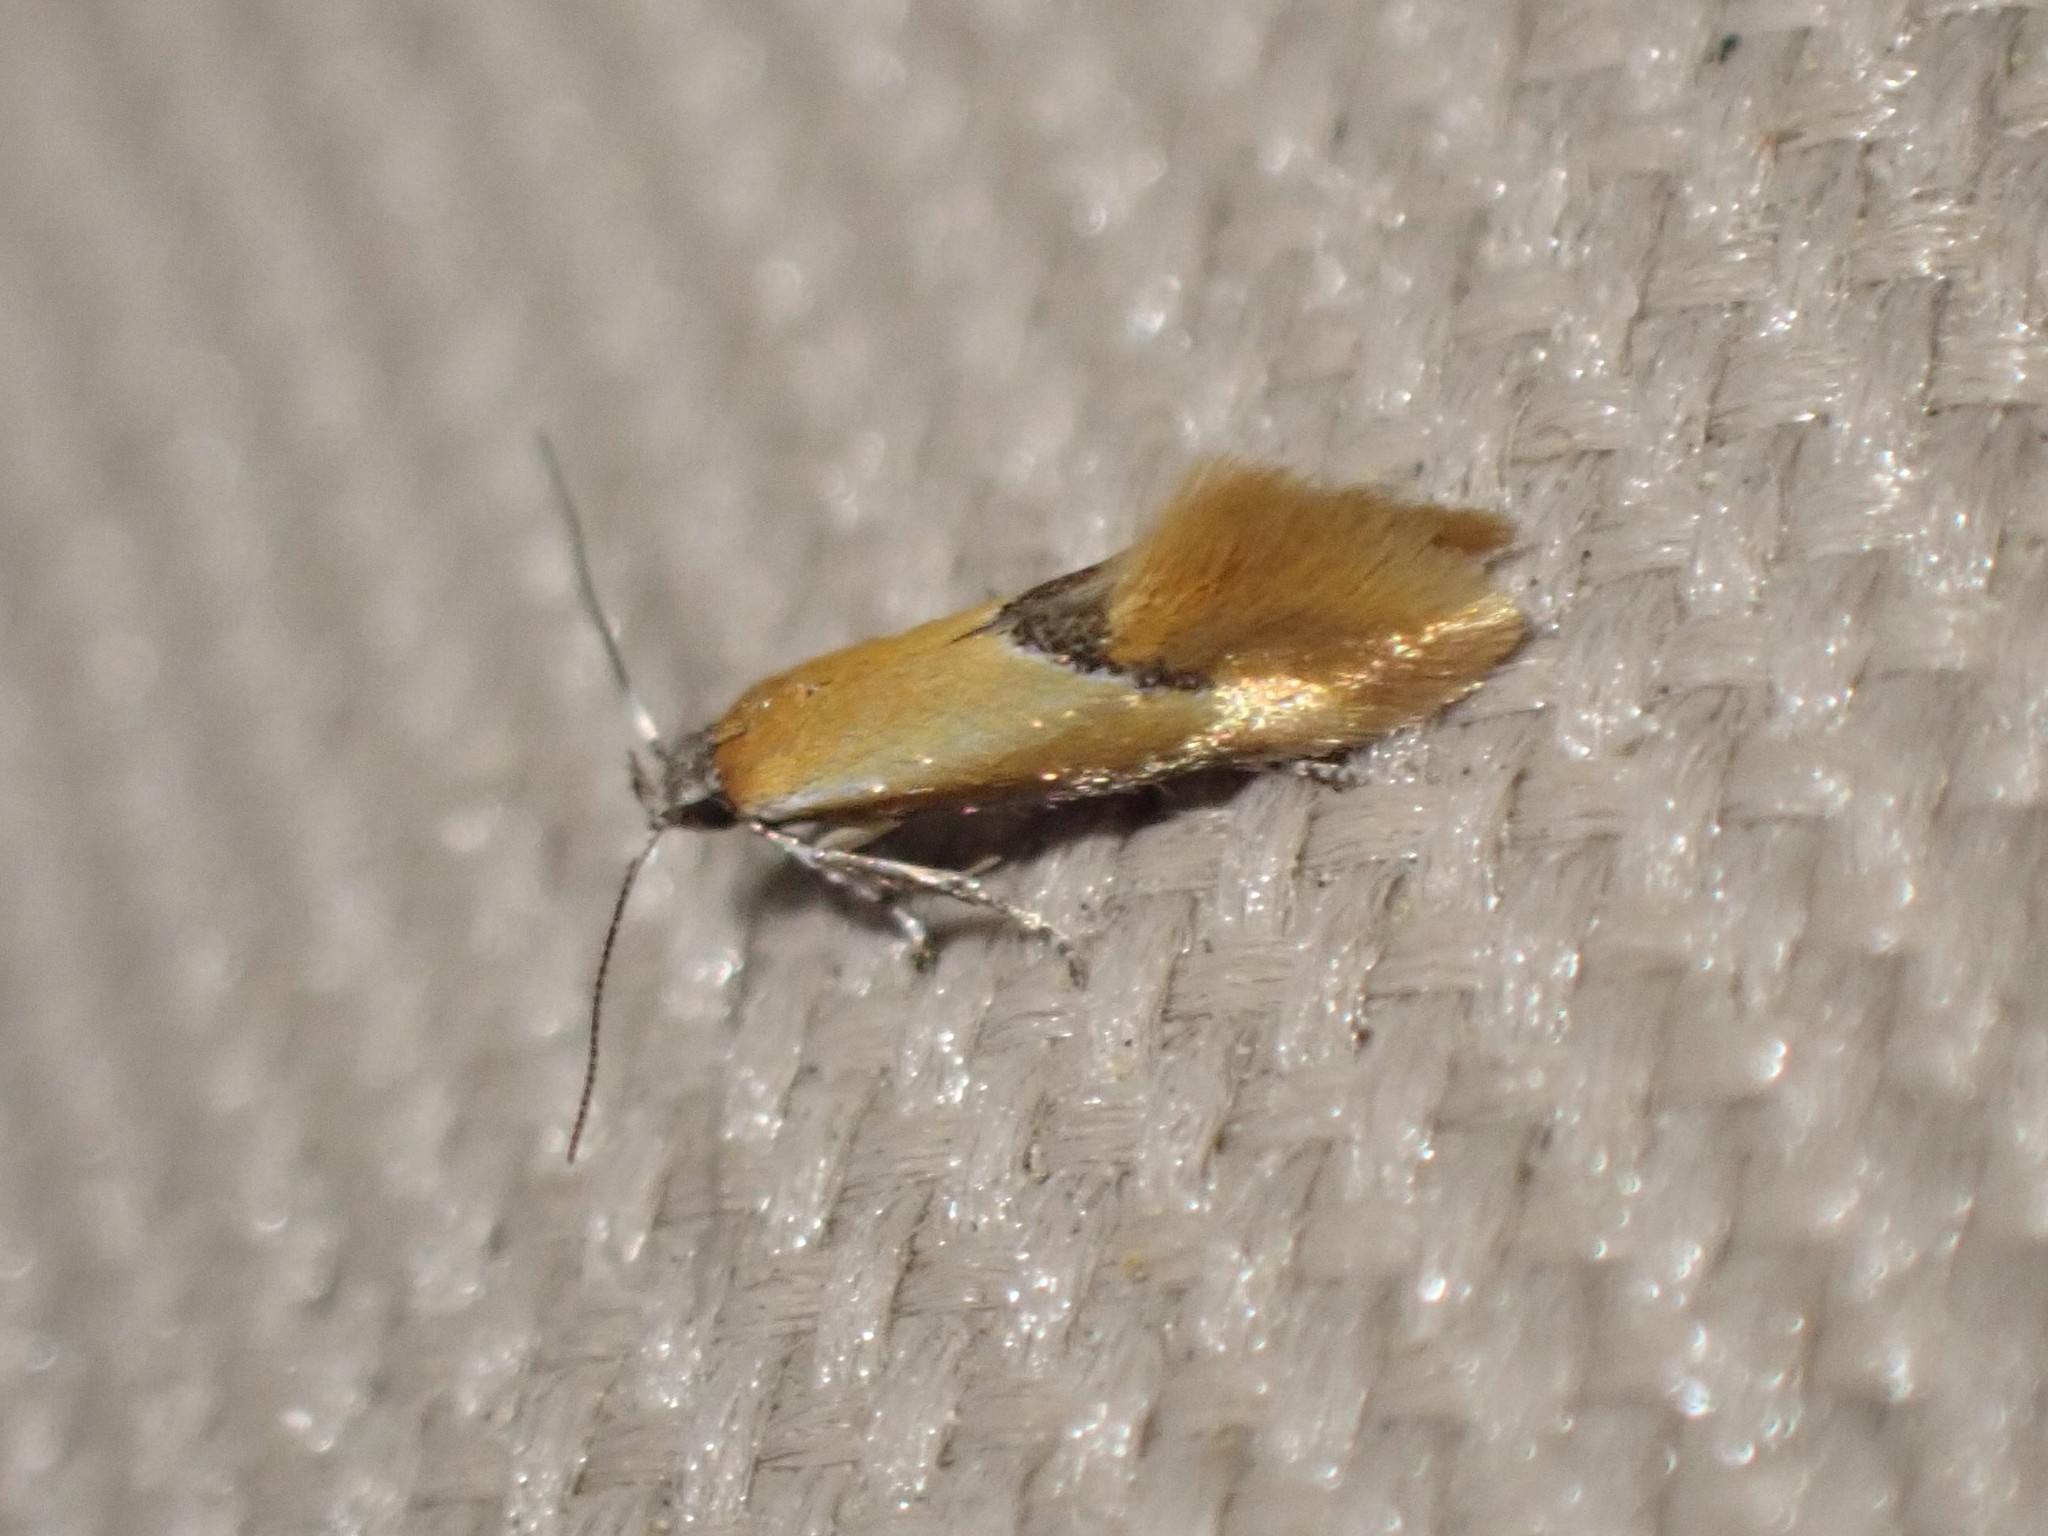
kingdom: Animalia
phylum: Arthropoda
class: Insecta
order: Lepidoptera
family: Oecophoridae
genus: Batia
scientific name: Batia lunaris
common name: Moth
